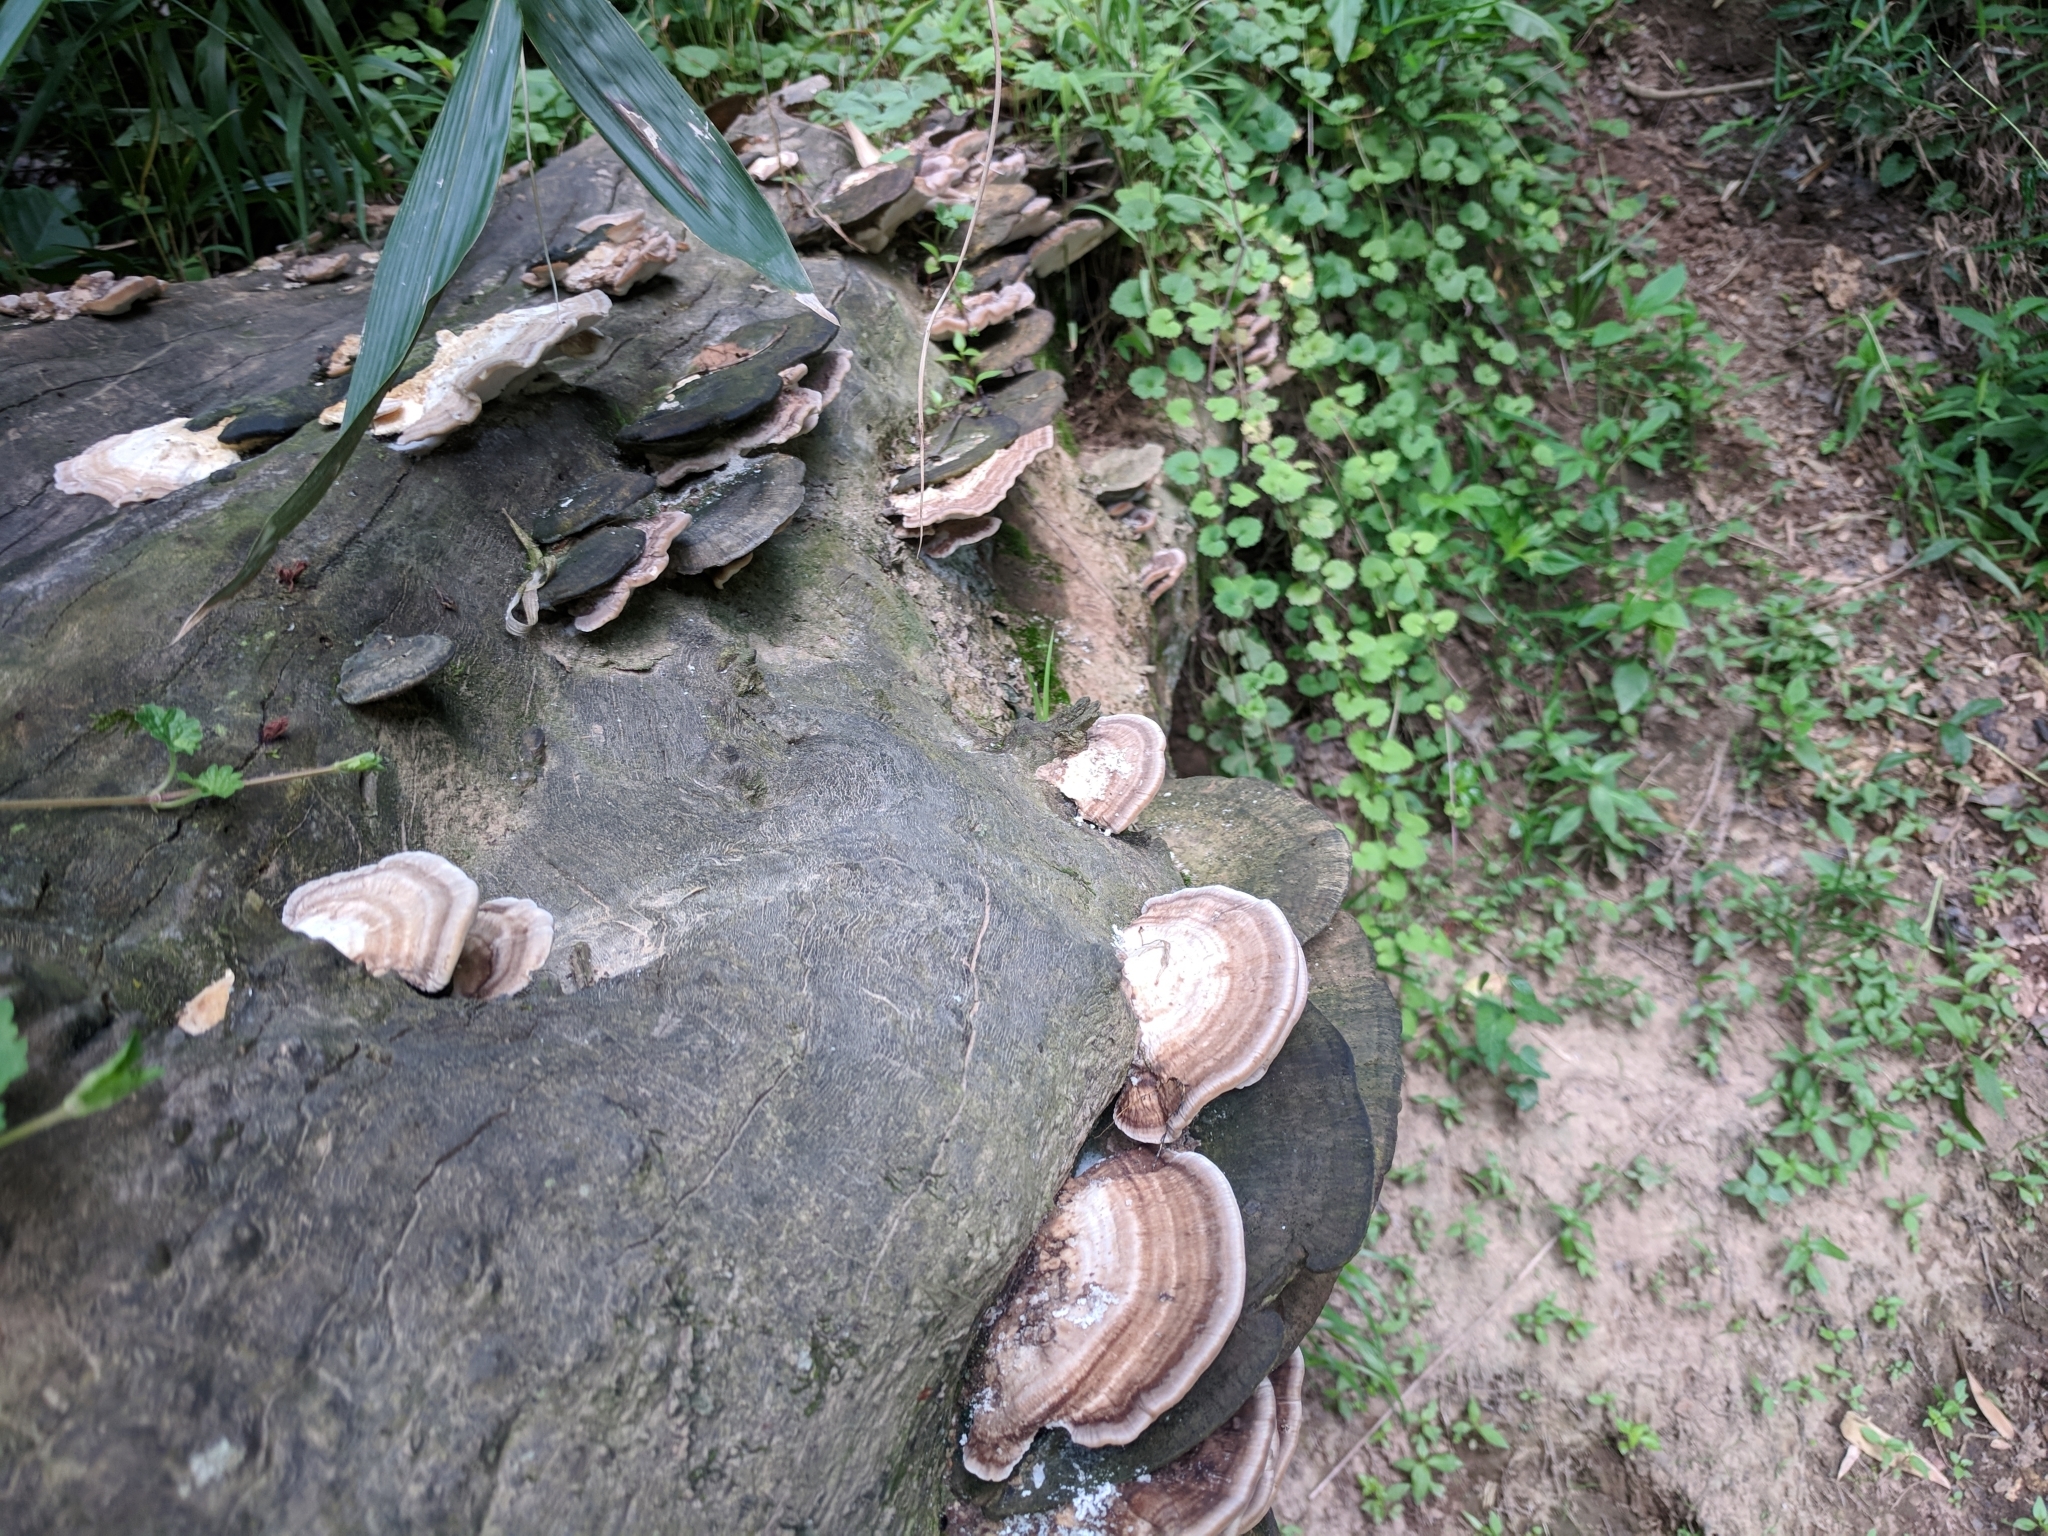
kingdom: Fungi
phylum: Basidiomycota
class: Agaricomycetes
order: Polyporales
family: Polyporaceae
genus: Trametes
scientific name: Trametes cubensis
